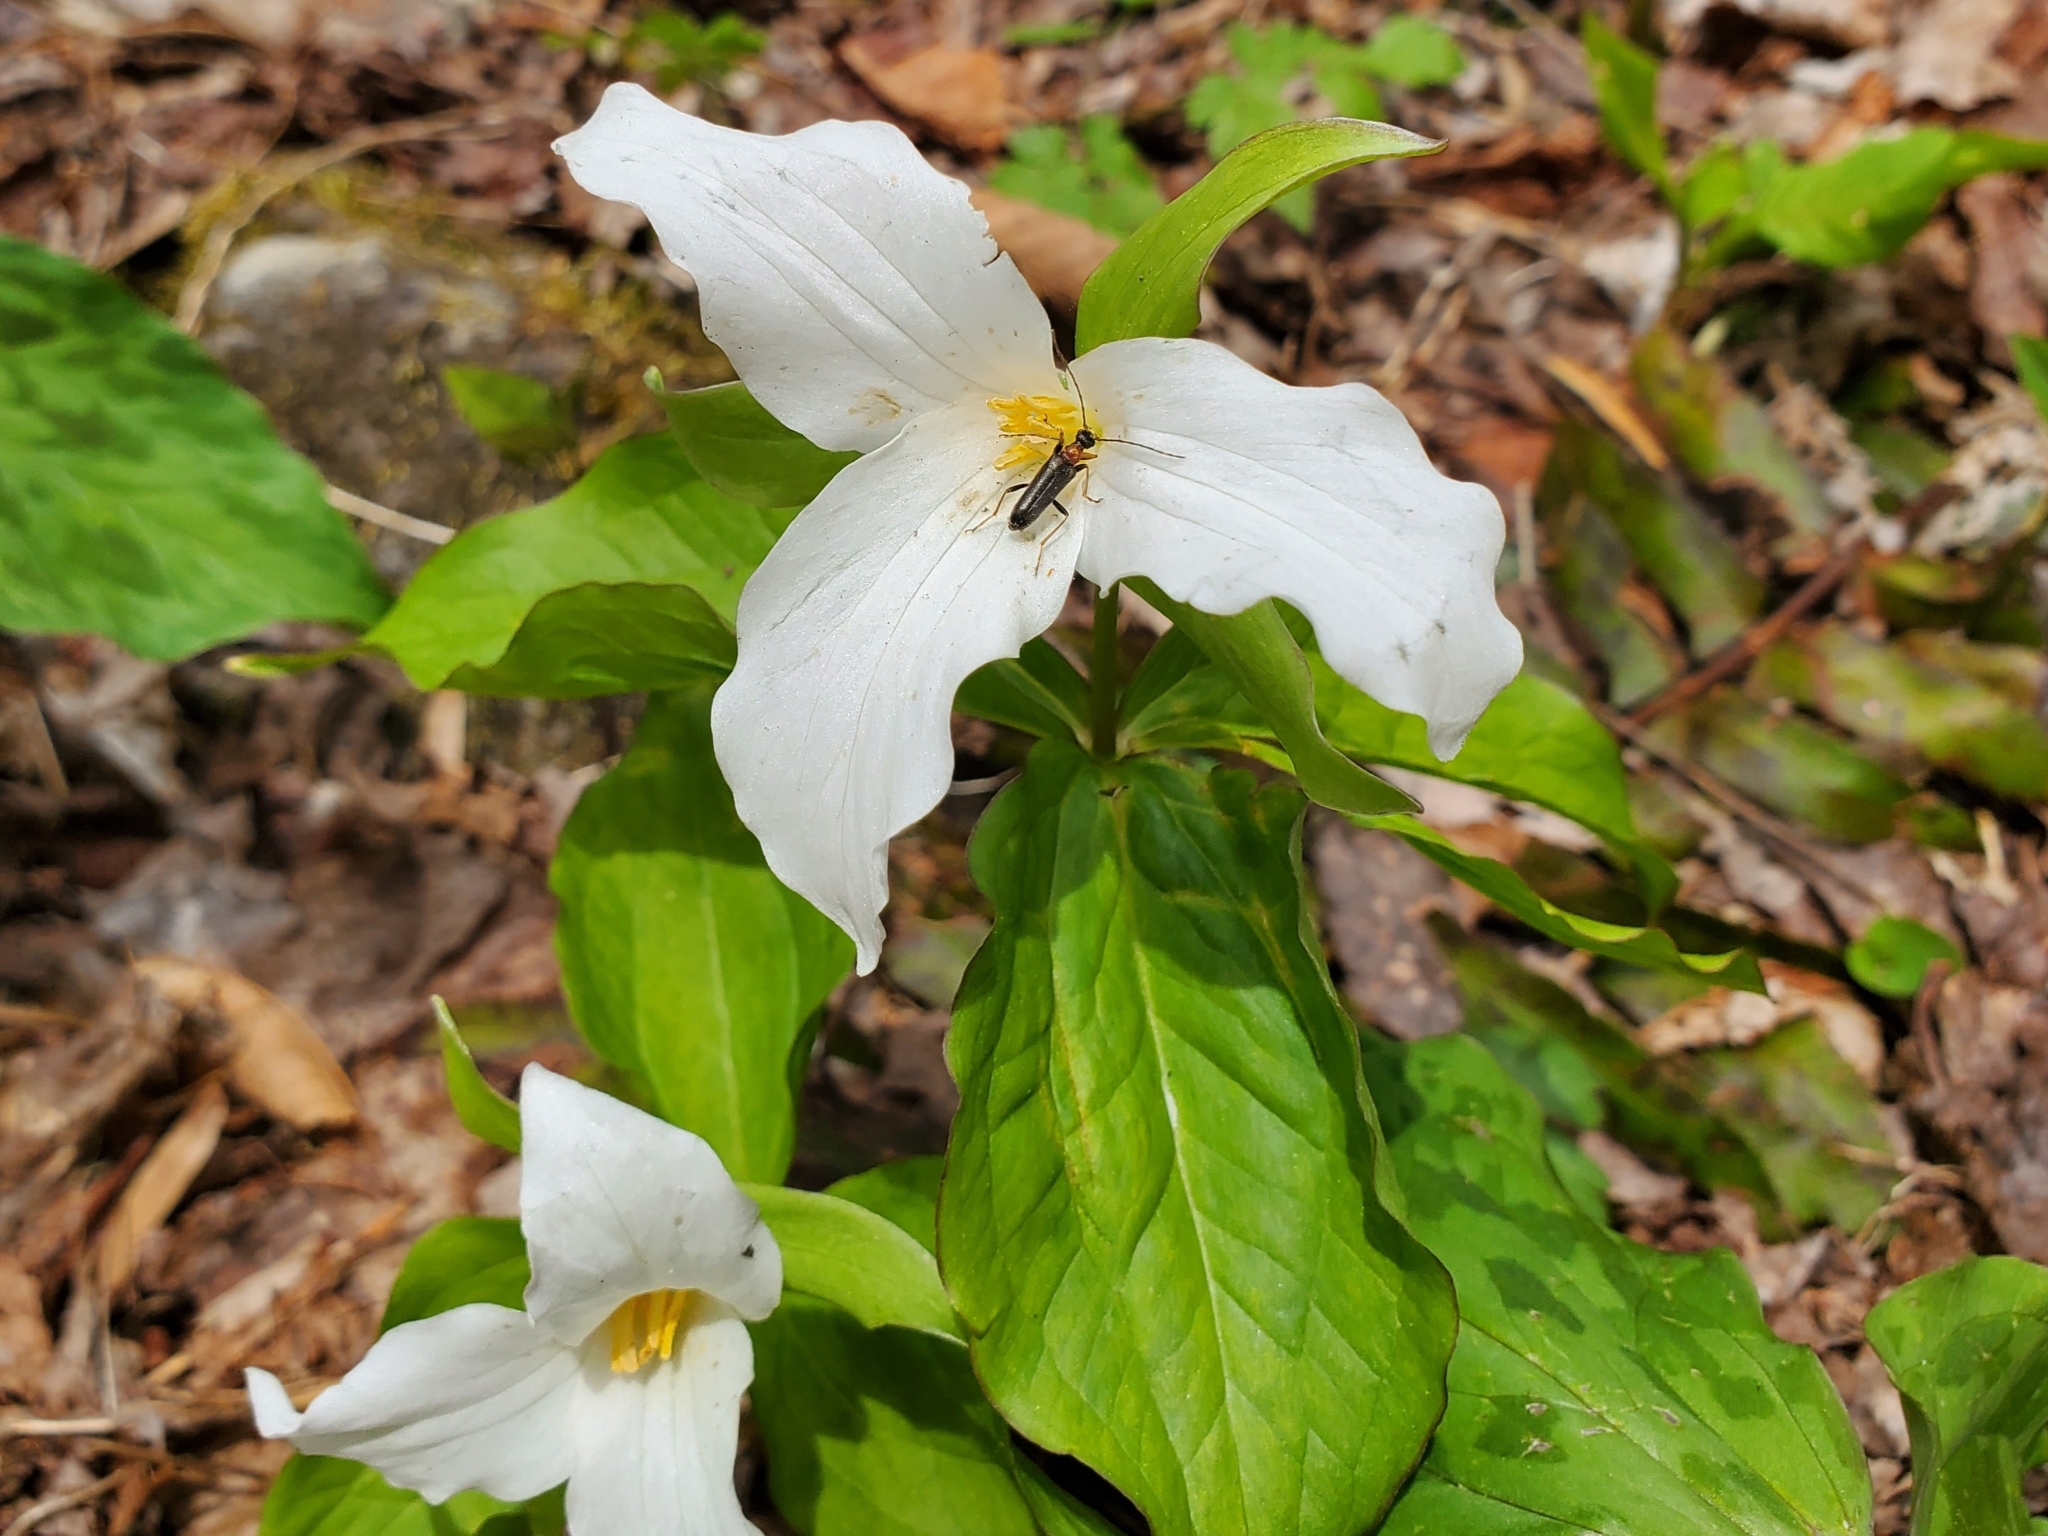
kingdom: Animalia
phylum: Arthropoda
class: Insecta
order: Coleoptera
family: Cerambycidae
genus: Pidonia
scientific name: Pidonia ruficollis
